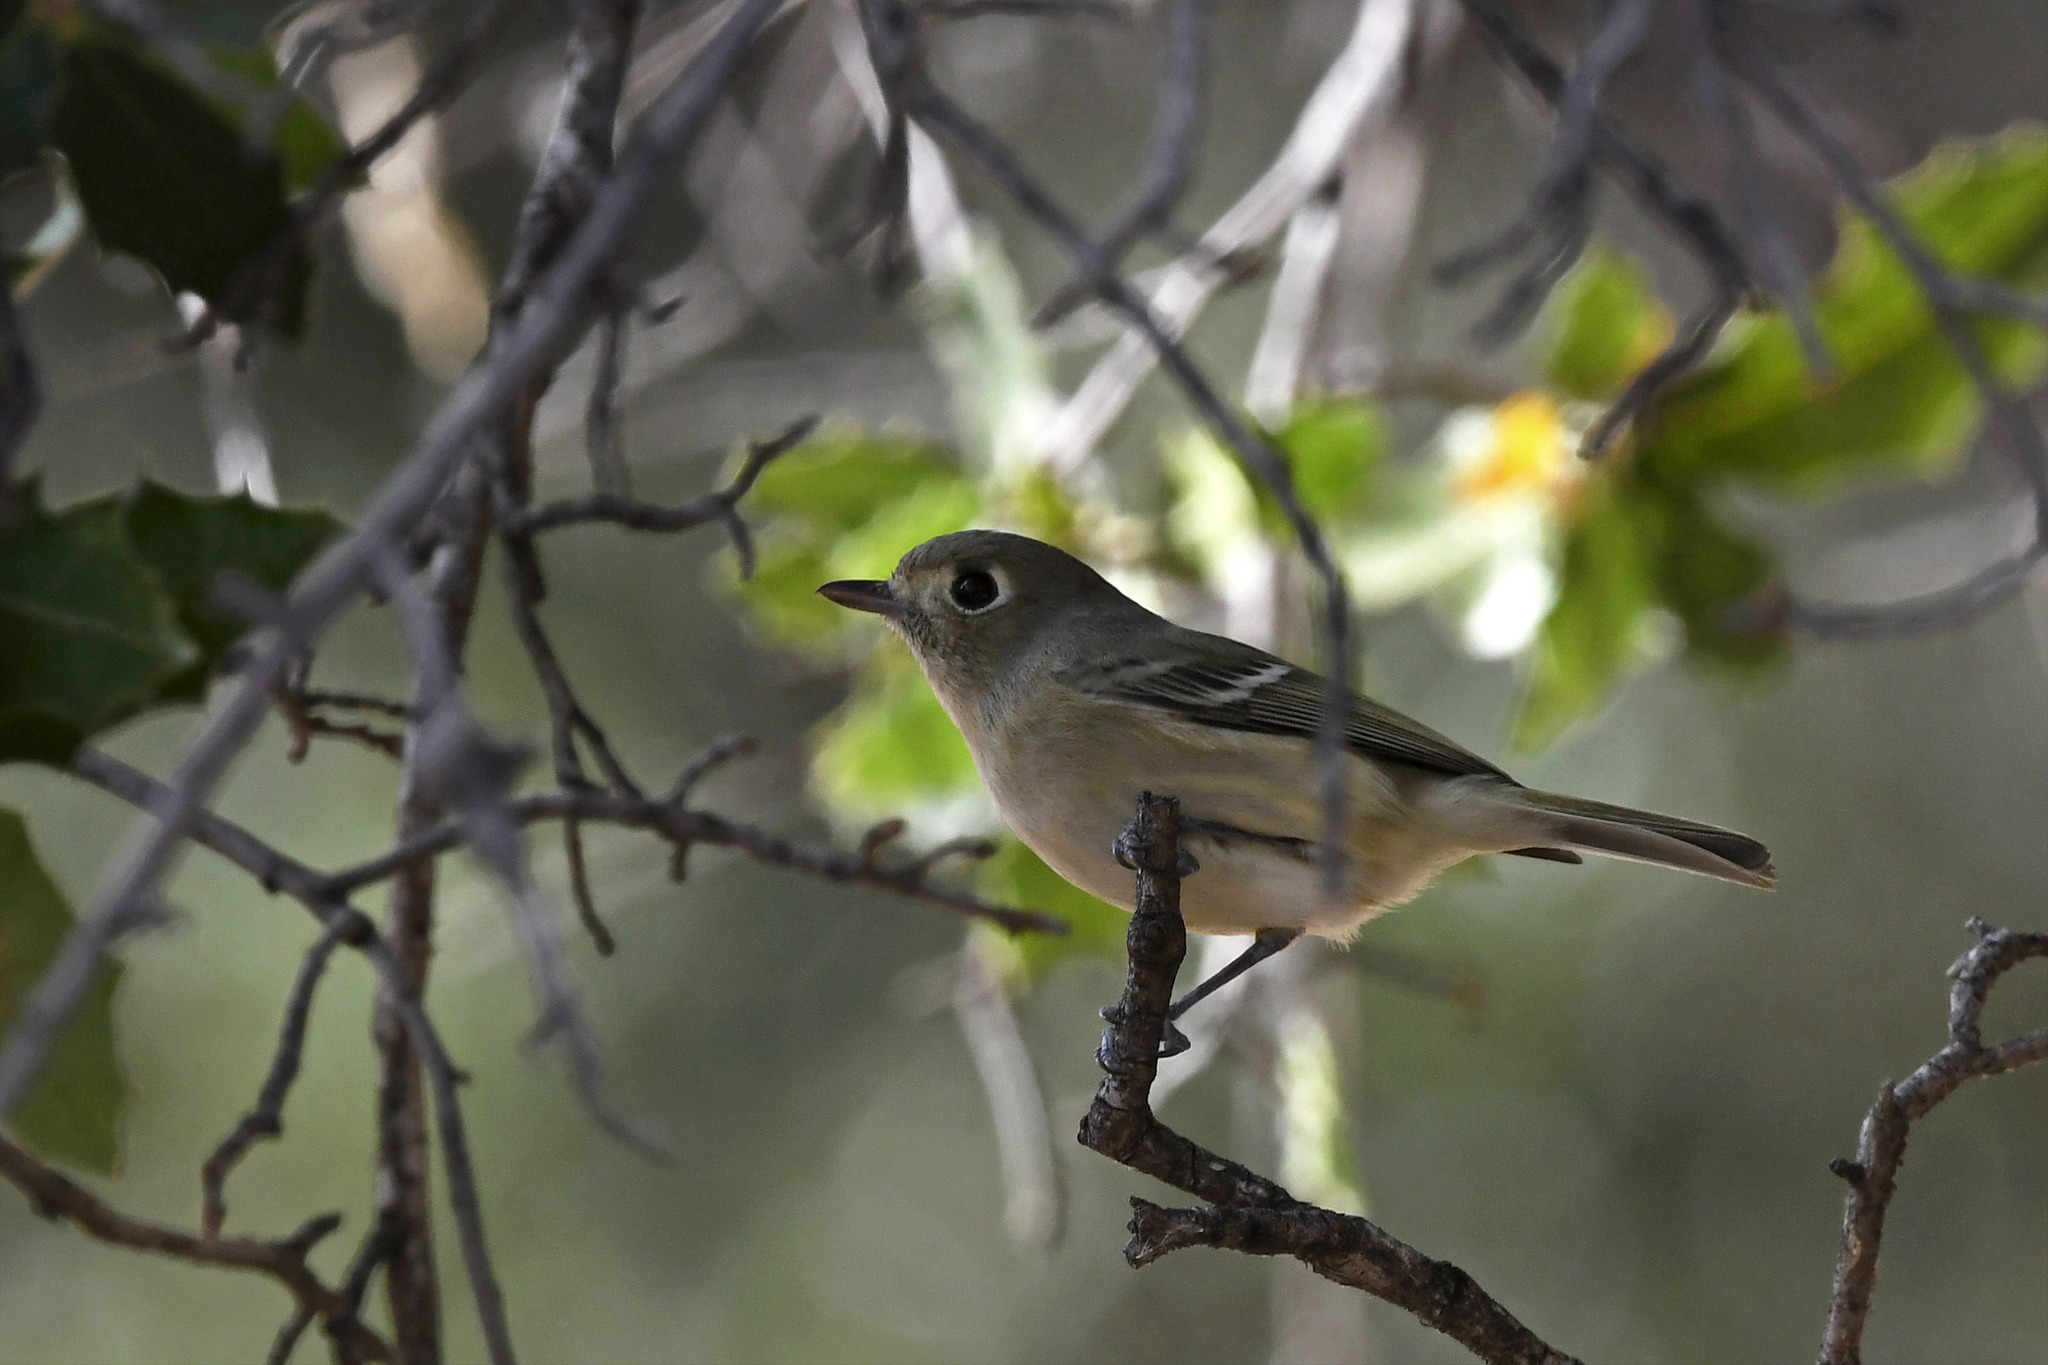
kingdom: Animalia
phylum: Chordata
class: Aves
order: Passeriformes
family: Vireonidae
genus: Vireo
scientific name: Vireo huttoni
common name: Hutton's vireo
